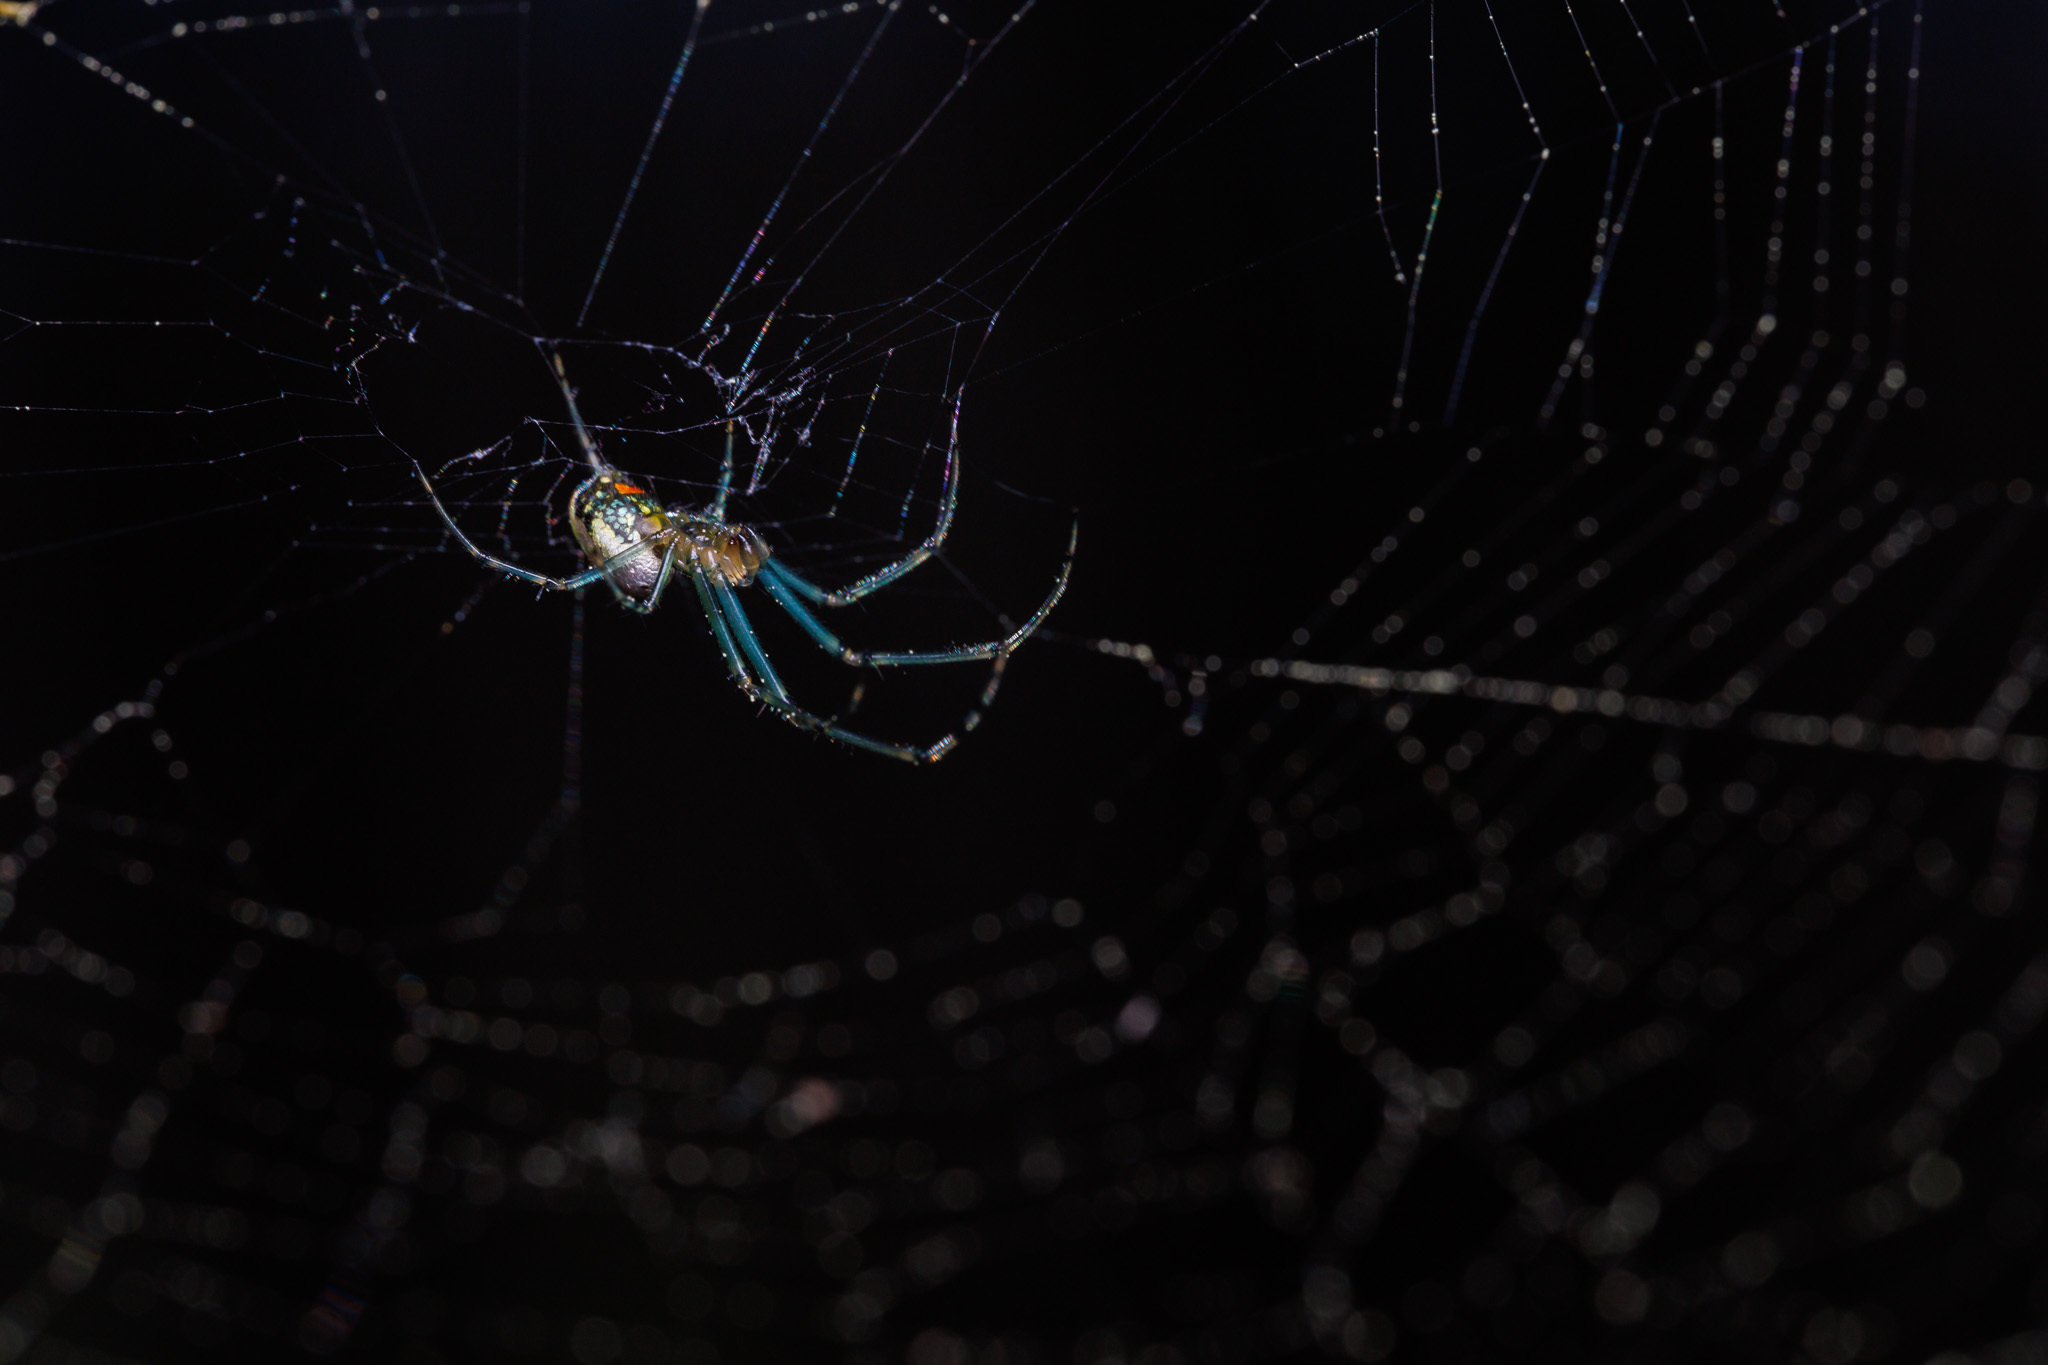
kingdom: Animalia
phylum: Arthropoda
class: Arachnida
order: Araneae
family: Tetragnathidae
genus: Leucauge
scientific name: Leucauge venusta
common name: Longjawed orb weavers
